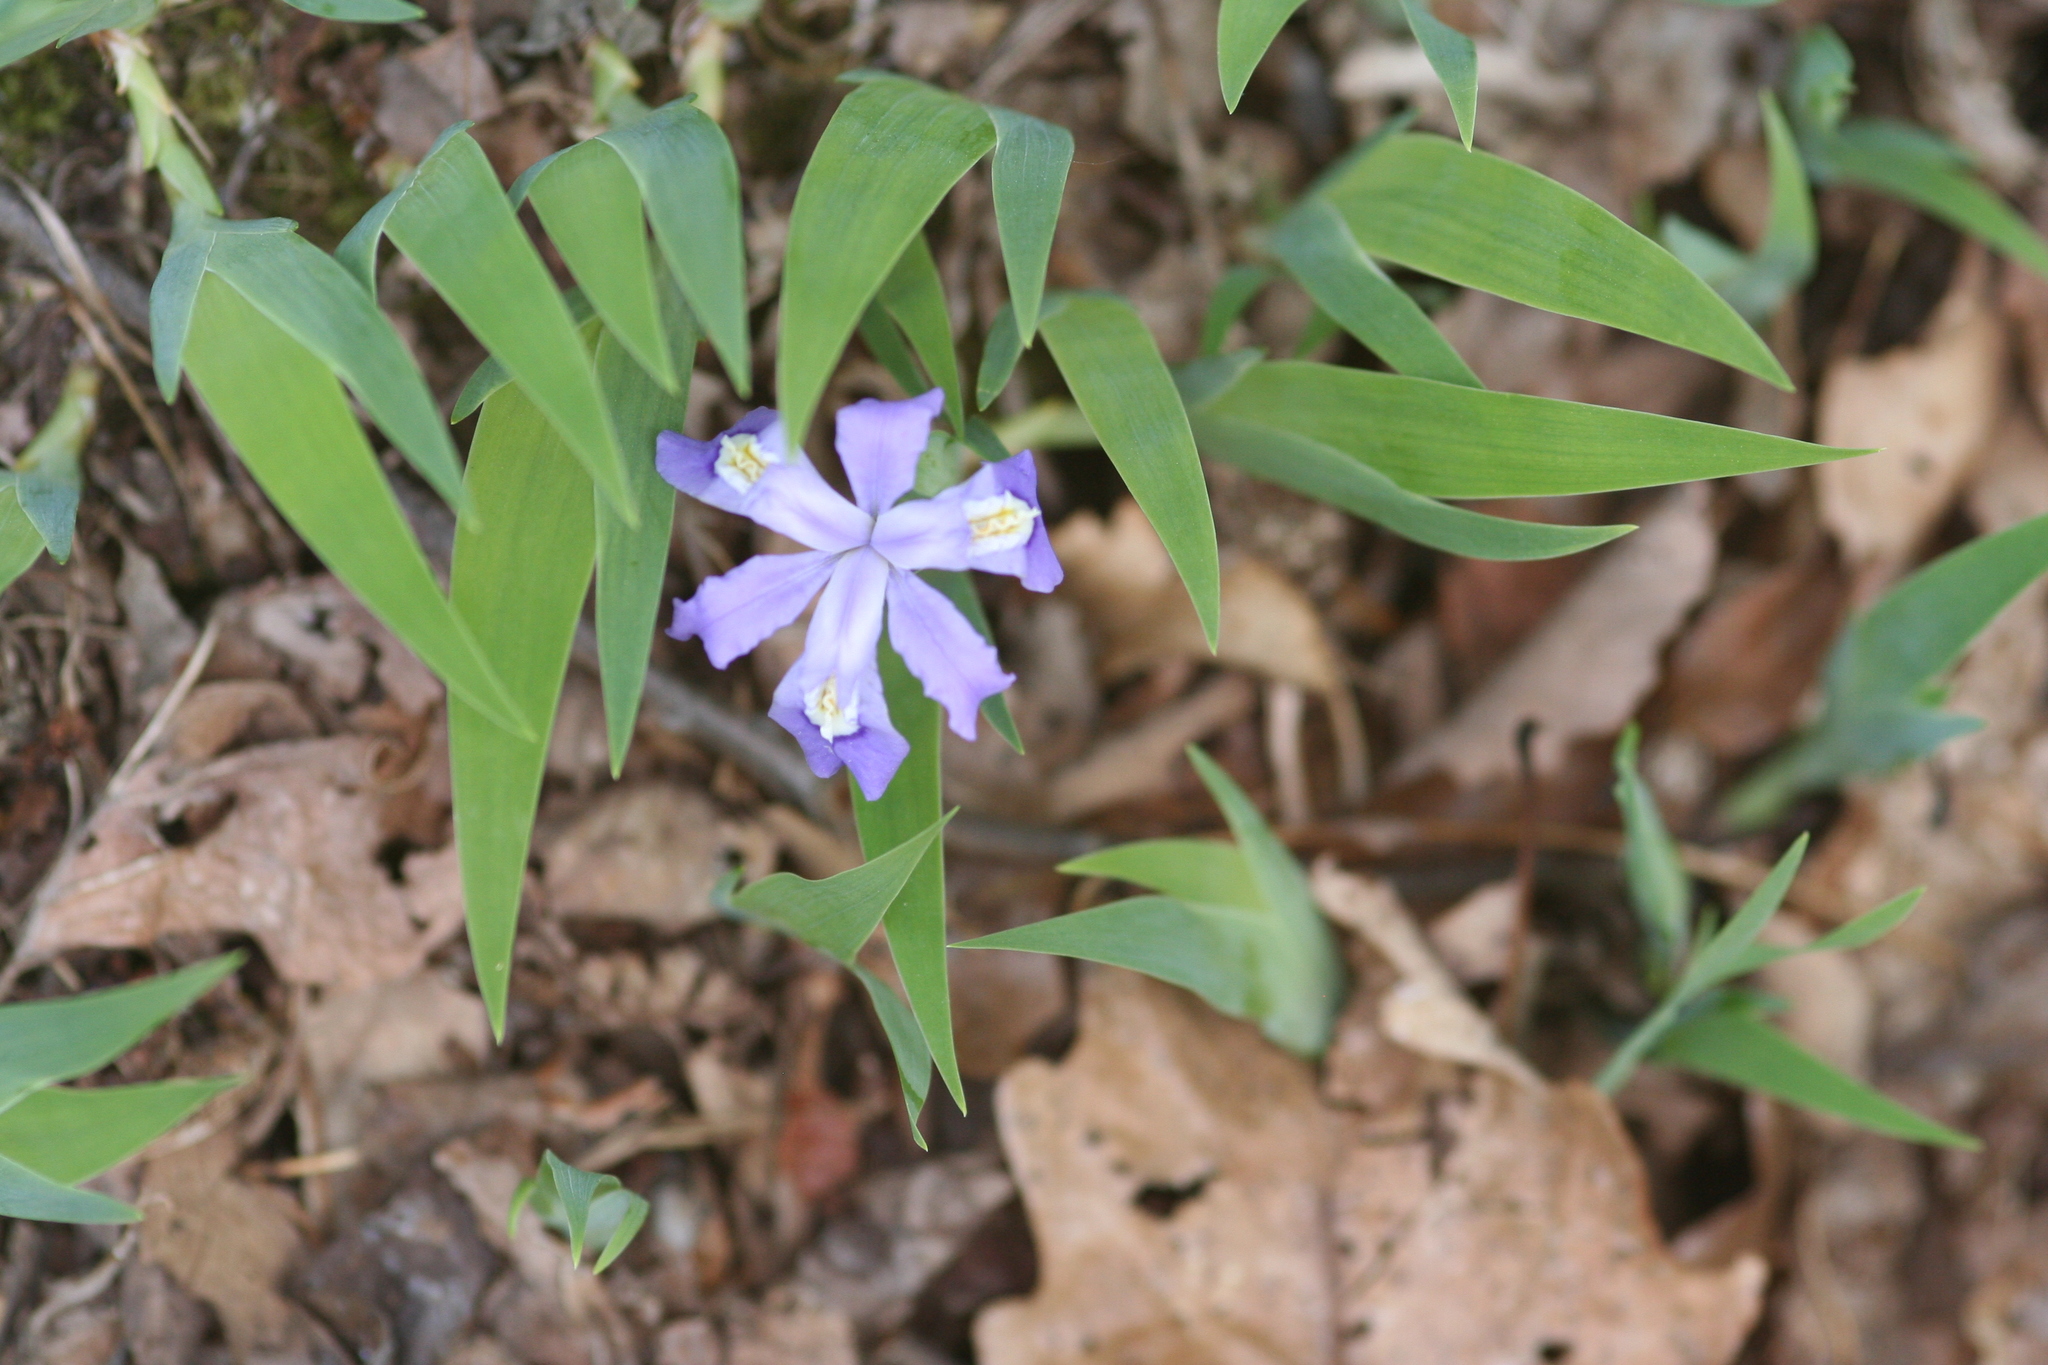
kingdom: Plantae
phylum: Tracheophyta
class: Liliopsida
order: Asparagales
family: Iridaceae
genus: Iris
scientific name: Iris cristata
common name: Crested iris
